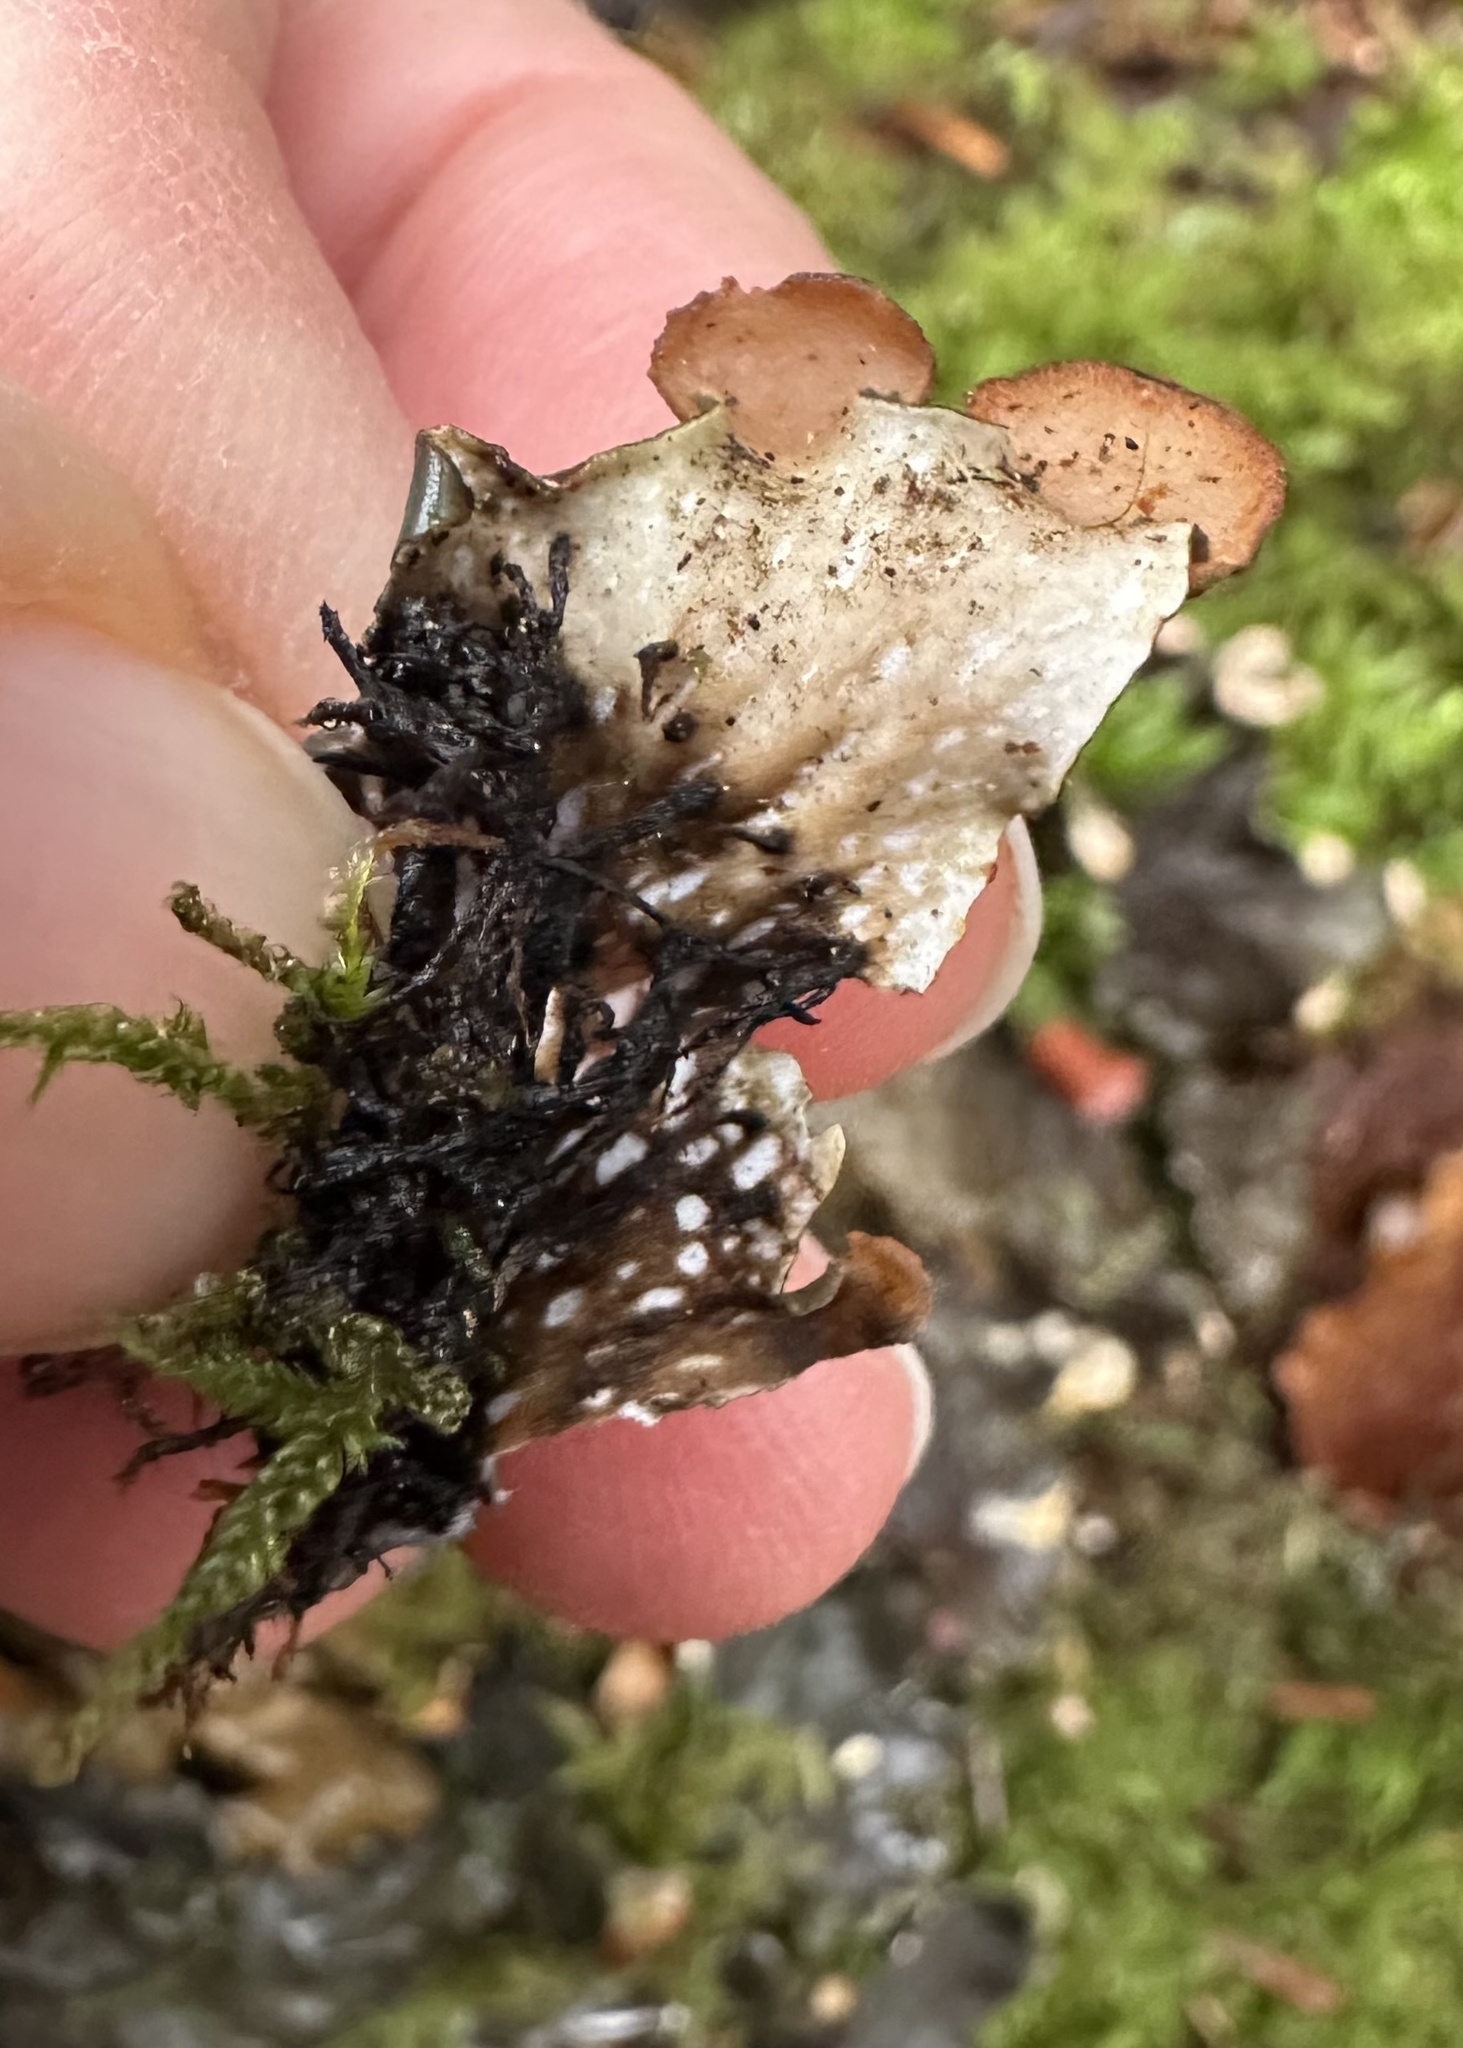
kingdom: Fungi
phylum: Ascomycota
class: Lecanoromycetes
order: Peltigerales
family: Peltigeraceae
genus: Peltigera
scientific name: Peltigera horizontalis
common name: Flat fruited pelt
